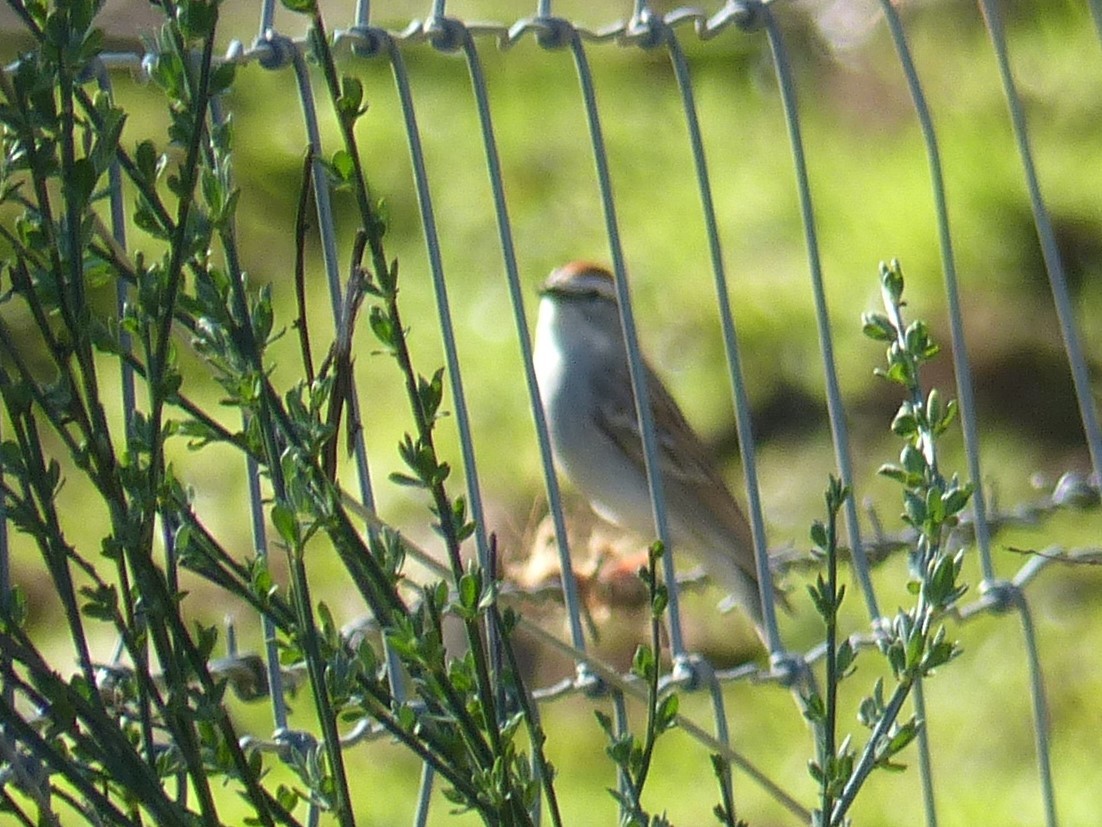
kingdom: Animalia
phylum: Chordata
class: Aves
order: Passeriformes
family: Passerellidae
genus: Spizella
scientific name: Spizella passerina
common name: Chipping sparrow
